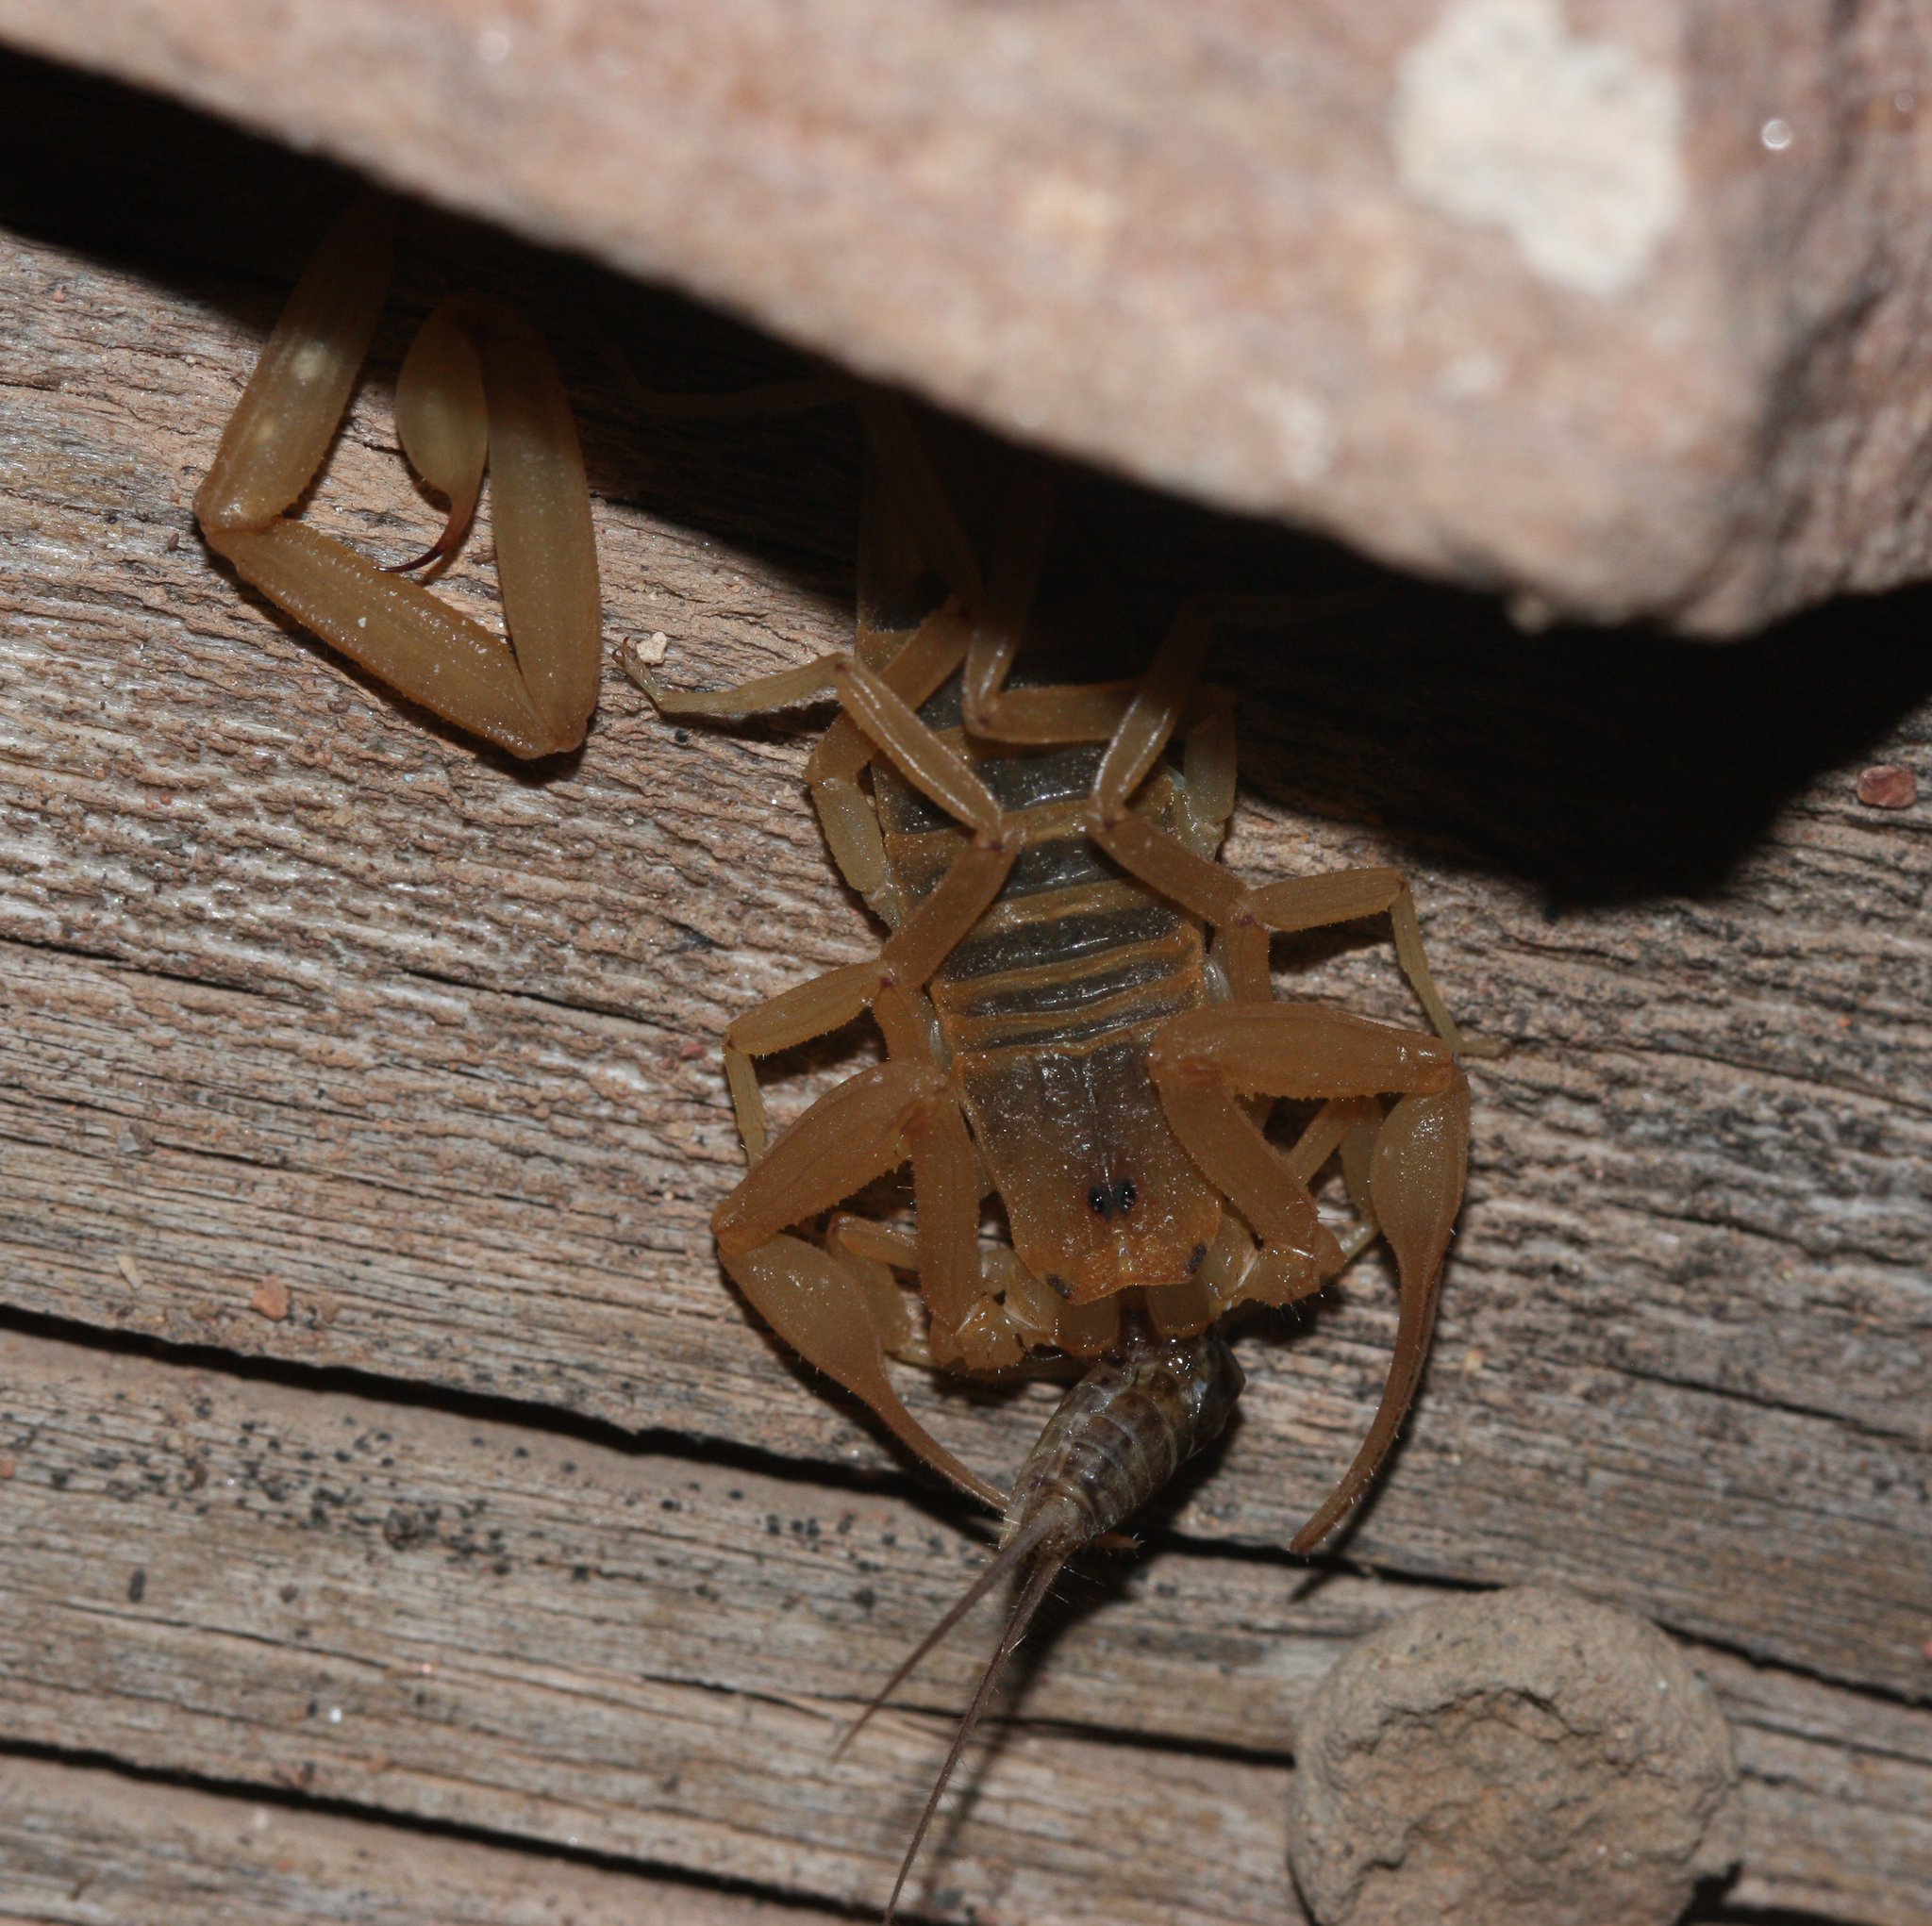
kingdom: Animalia
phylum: Arthropoda
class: Arachnida
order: Scorpiones
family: Buthidae
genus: Centruroides
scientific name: Centruroides sculpturatus
